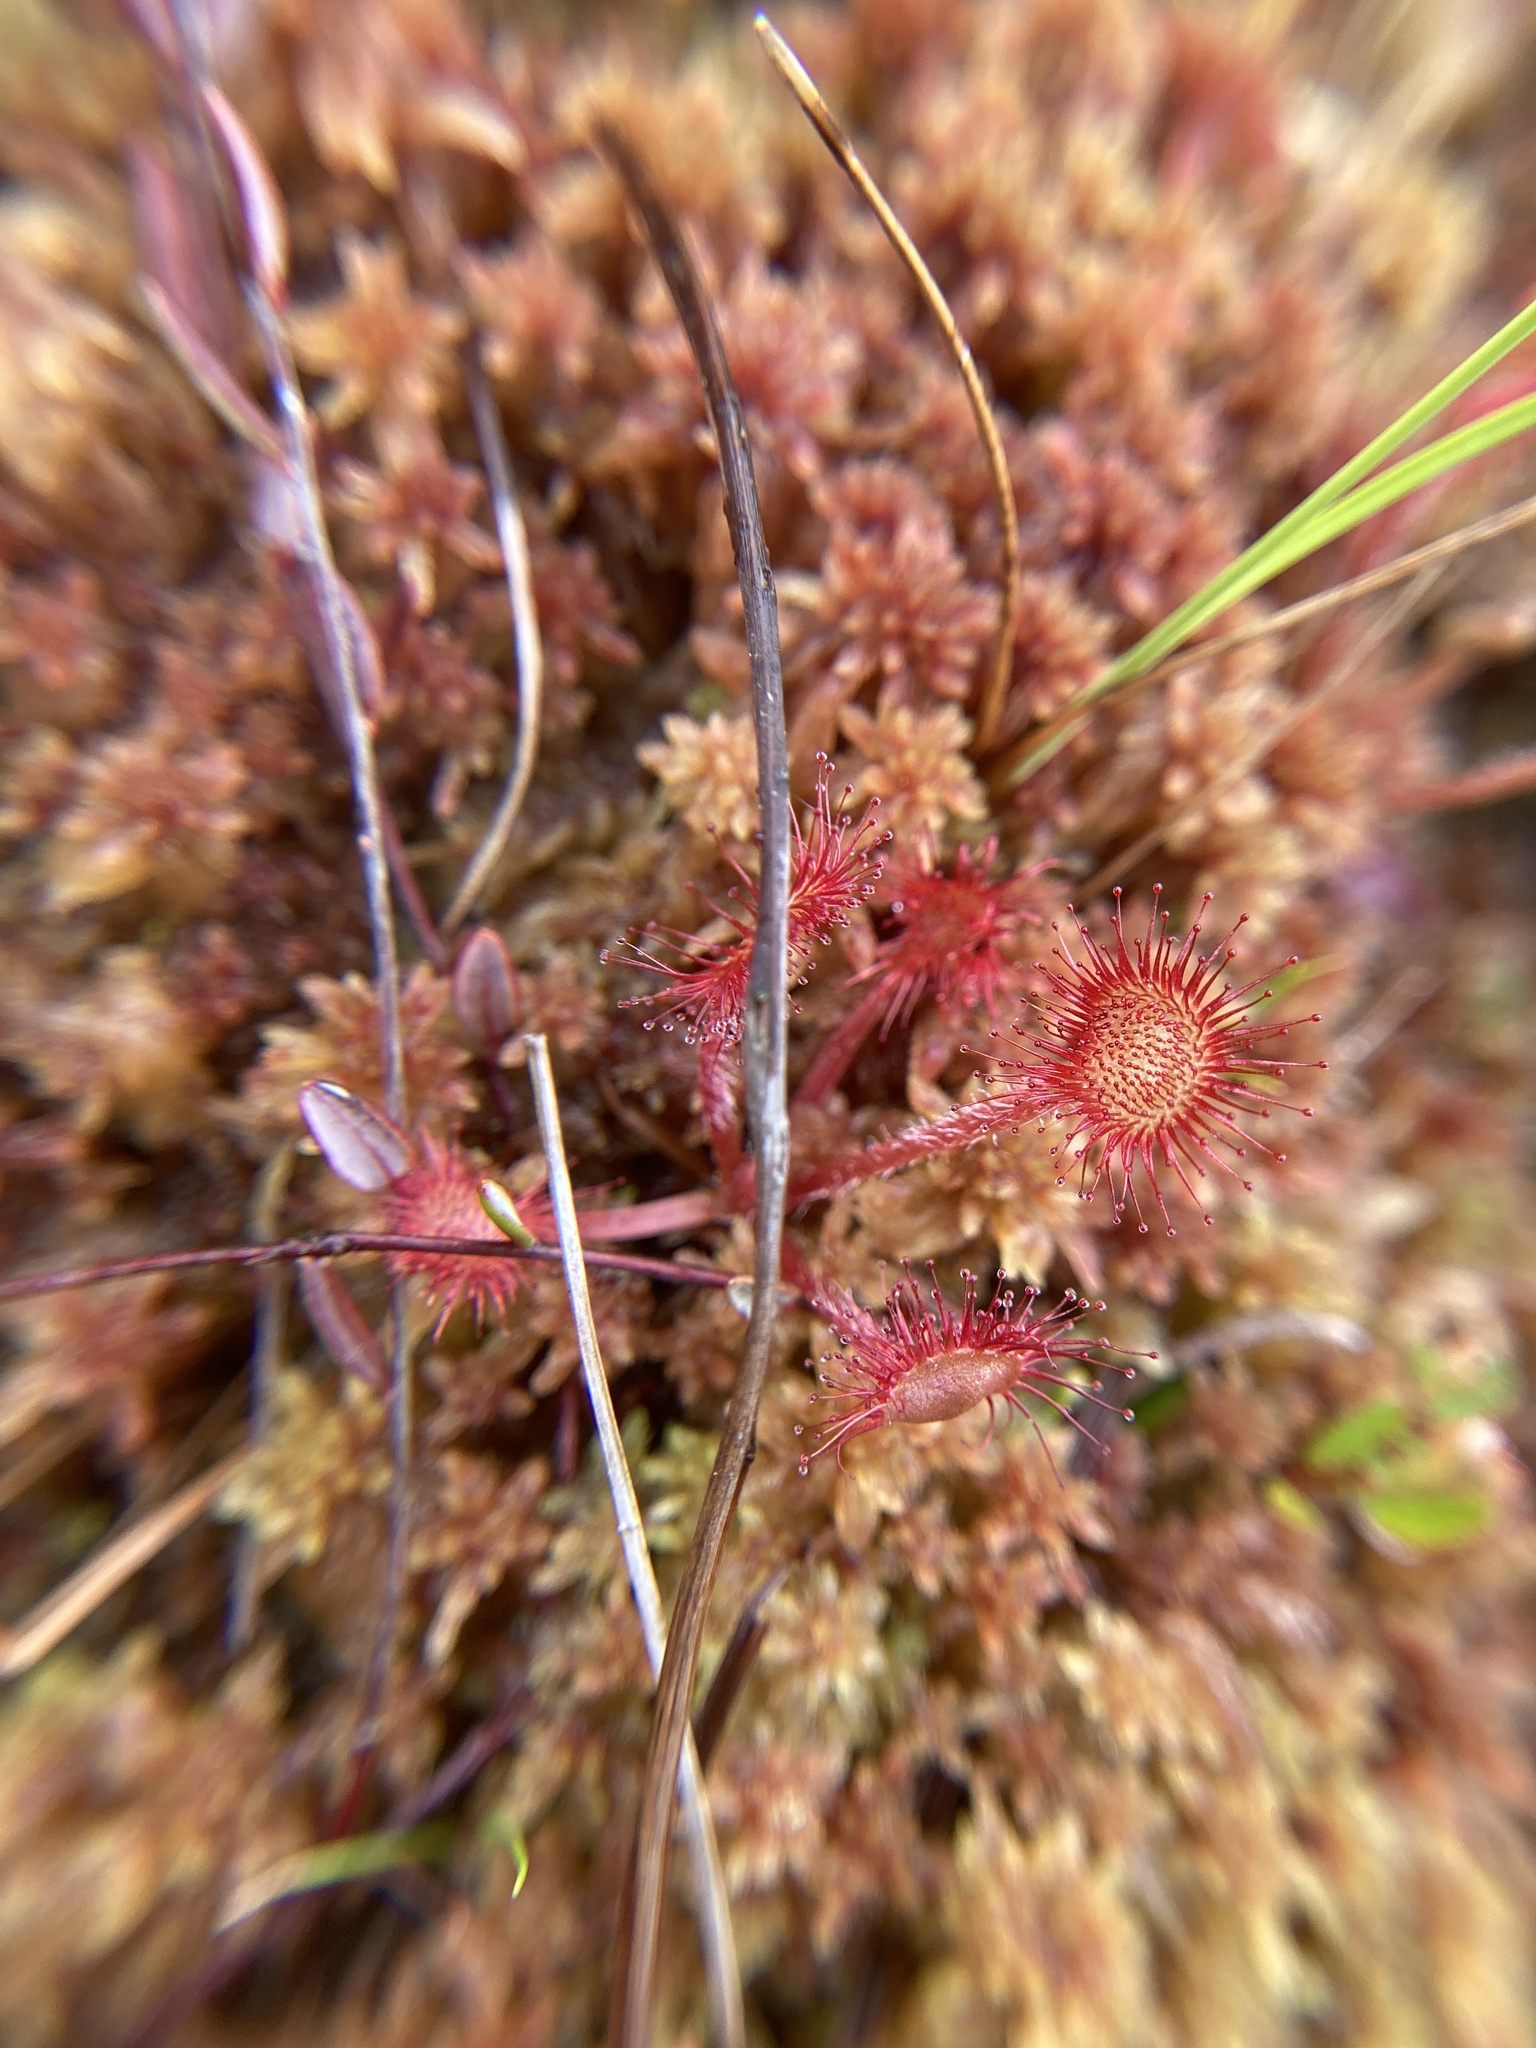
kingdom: Plantae
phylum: Tracheophyta
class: Magnoliopsida
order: Caryophyllales
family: Droseraceae
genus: Drosera
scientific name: Drosera rotundifolia
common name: Round-leaved sundew
